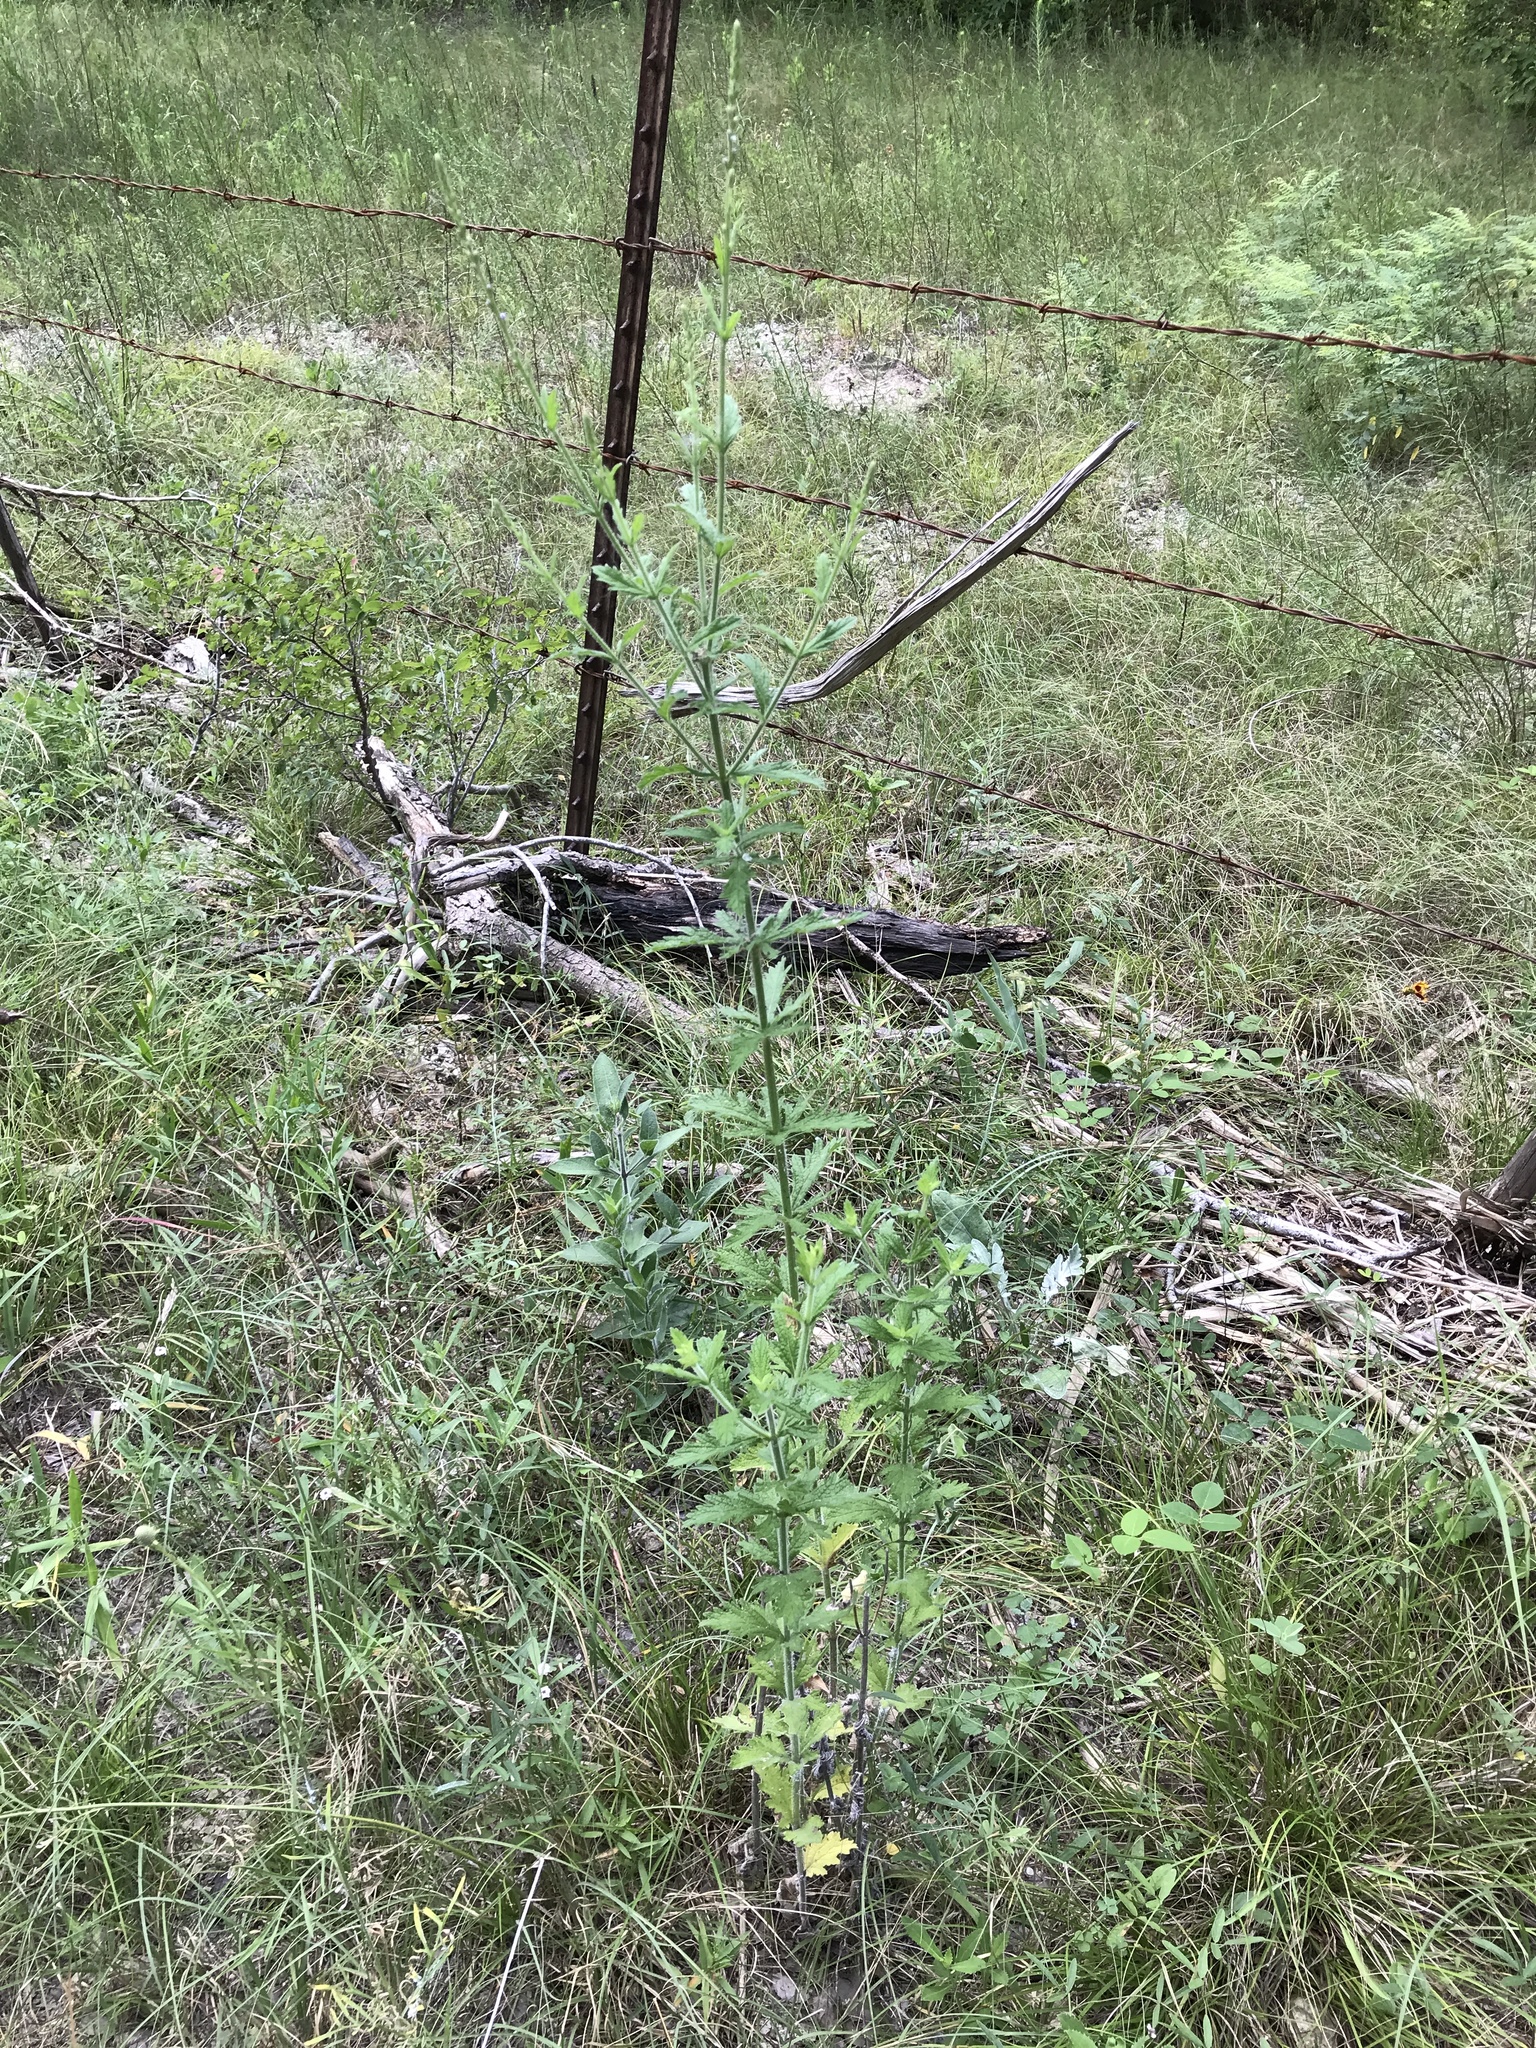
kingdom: Plantae
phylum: Tracheophyta
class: Magnoliopsida
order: Lamiales
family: Verbenaceae
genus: Verbena
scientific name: Verbena xutha
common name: Gulf vervain
